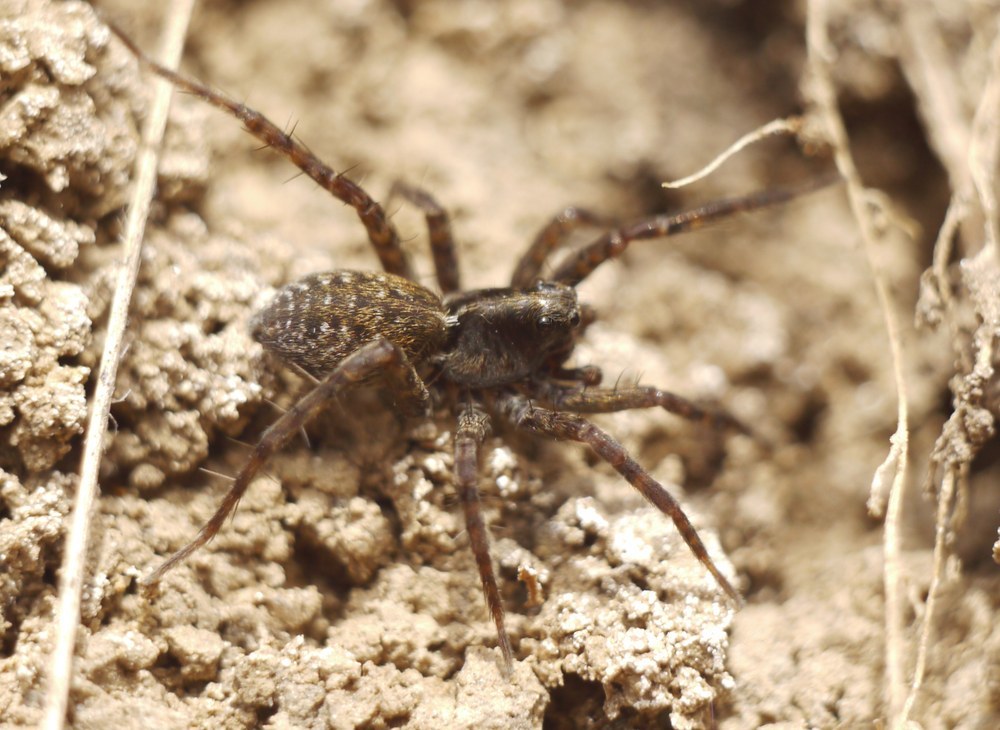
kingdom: Animalia
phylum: Arthropoda
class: Arachnida
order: Araneae
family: Lycosidae
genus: Pardosa
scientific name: Pardosa amentata
